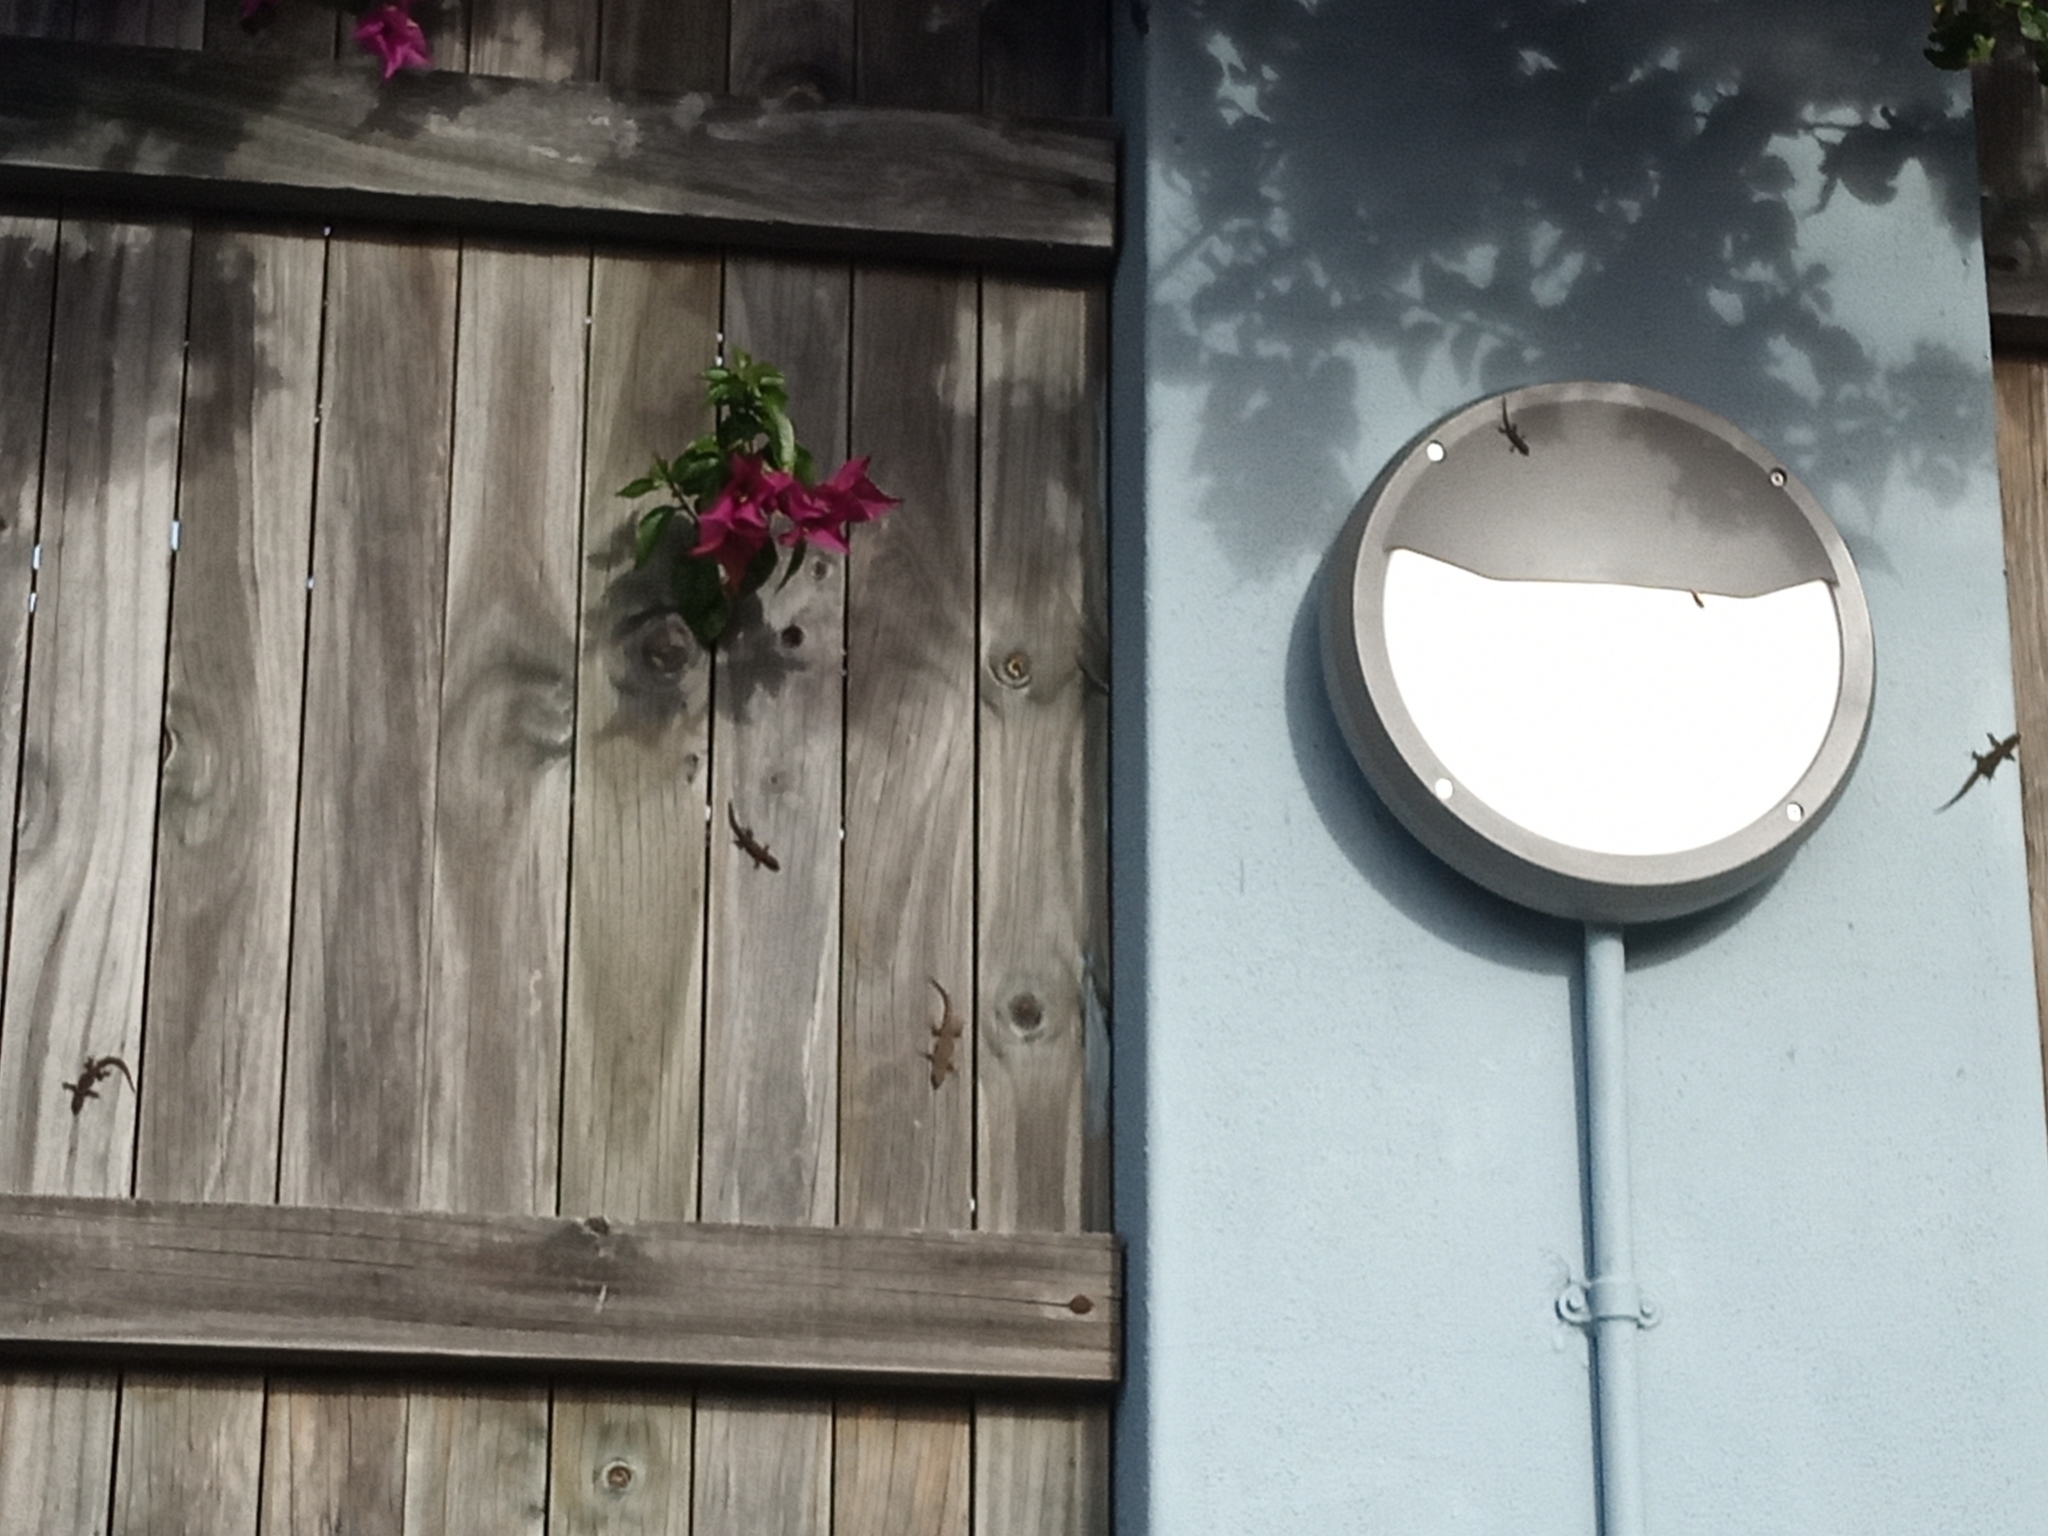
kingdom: Animalia
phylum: Chordata
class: Squamata
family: Gekkonidae
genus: Lygodactylus
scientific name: Lygodactylus capensis
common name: Cape dwarf gecko
